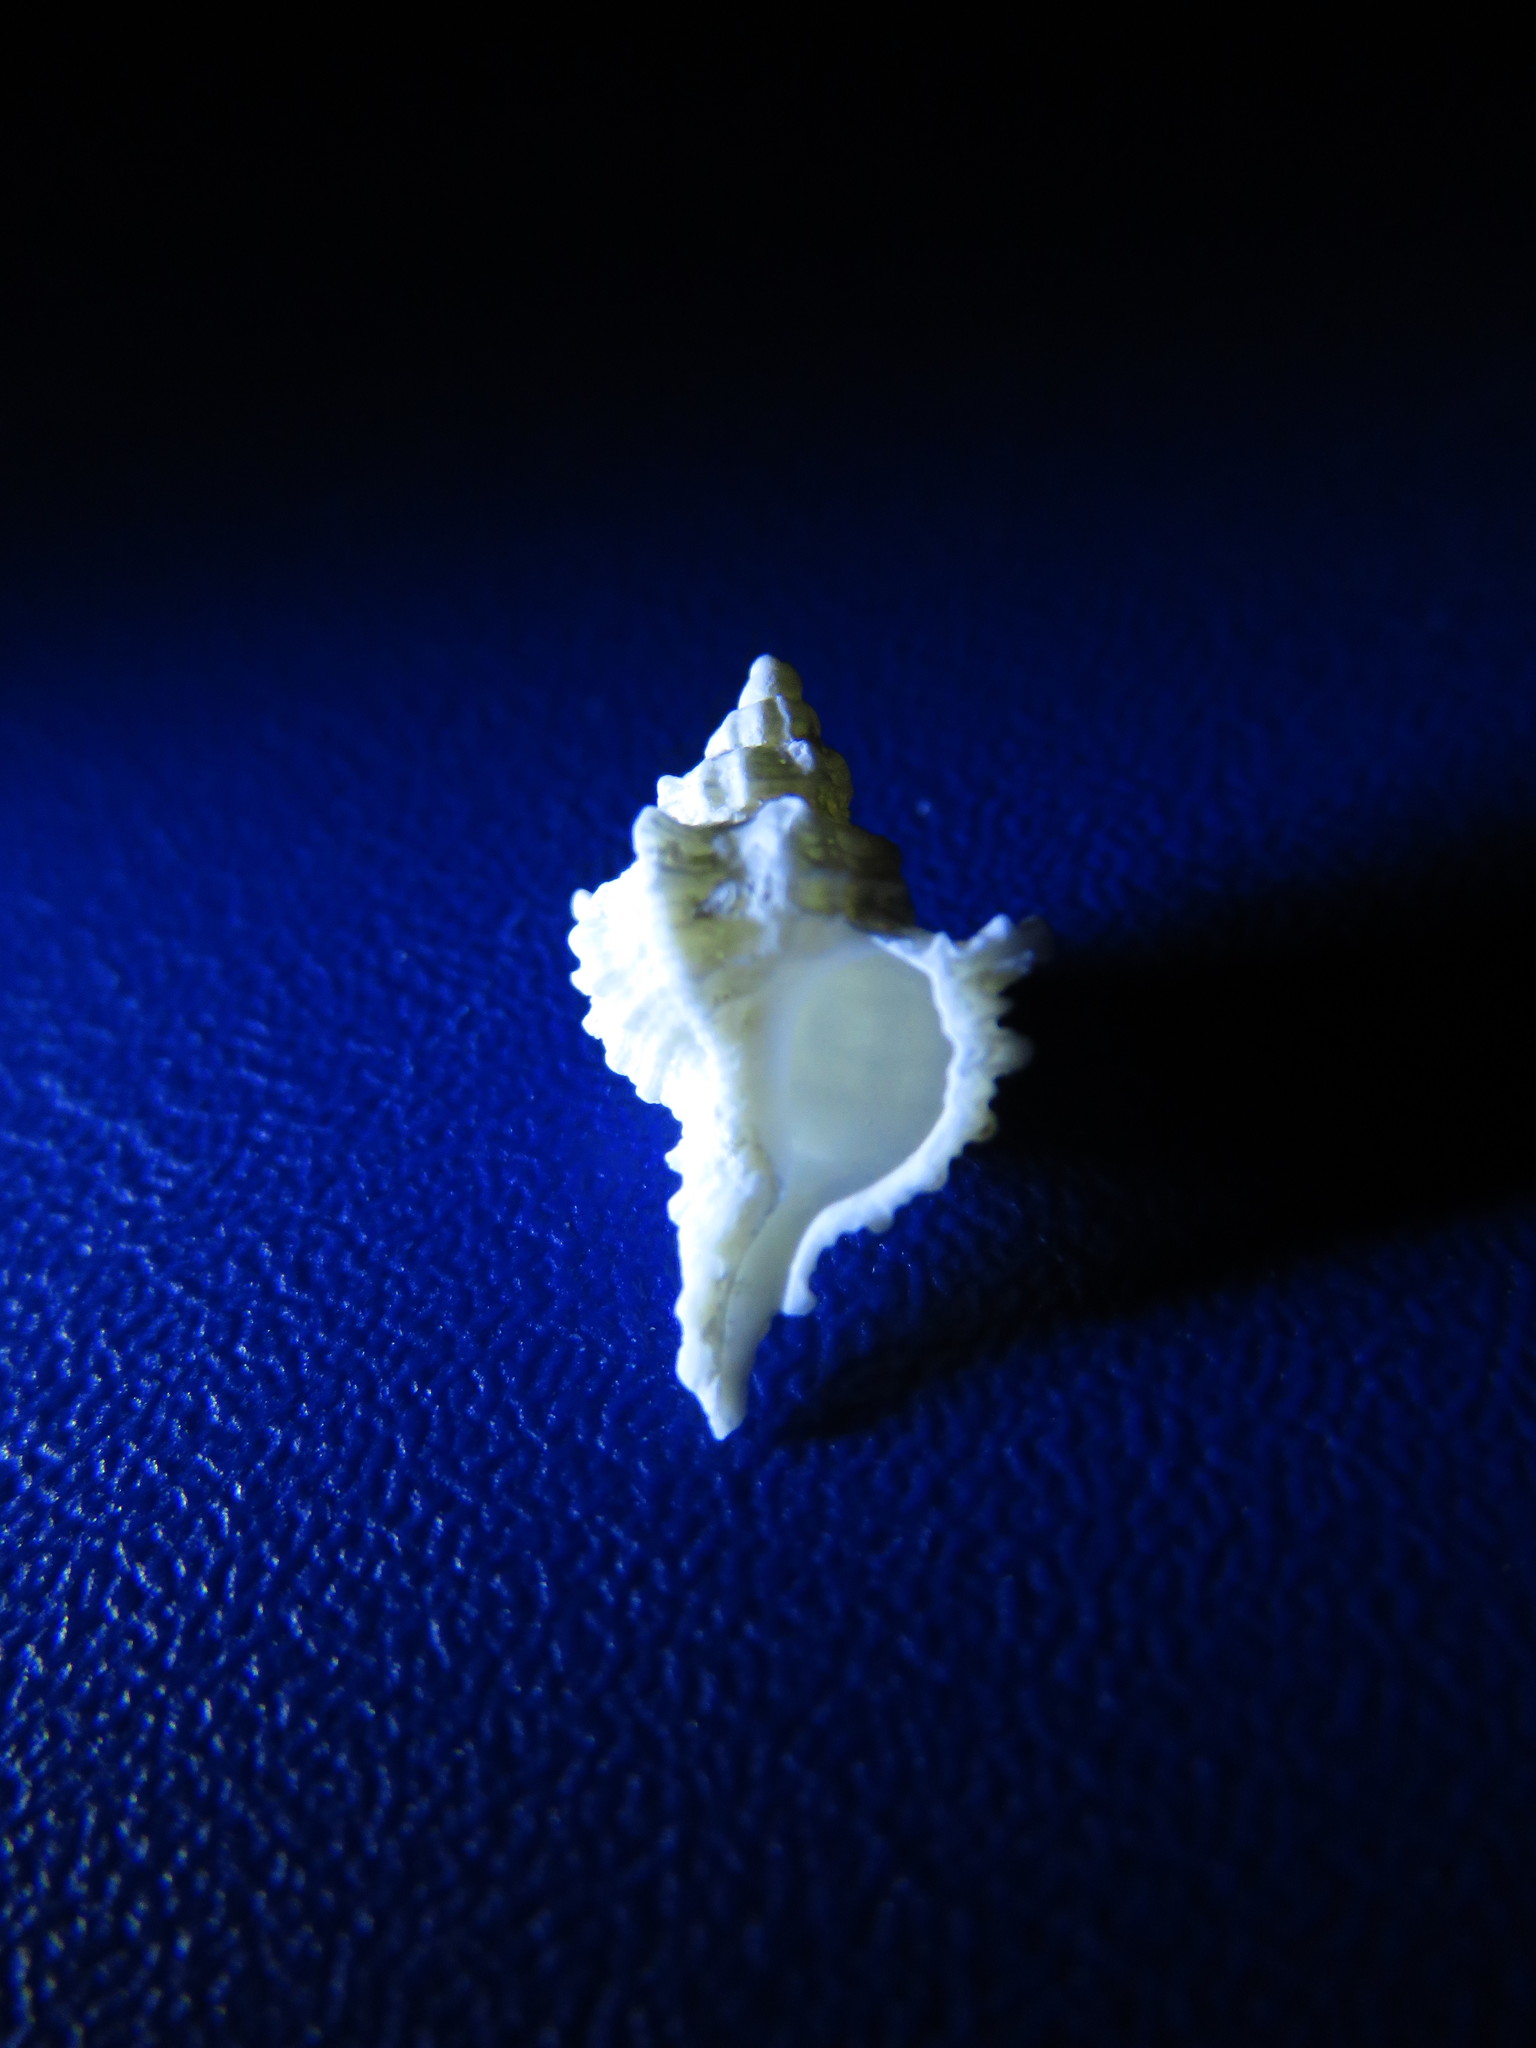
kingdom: Animalia
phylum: Mollusca
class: Gastropoda
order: Neogastropoda
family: Muricidae
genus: Chicoreus
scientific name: Chicoreus asianus
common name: Asian murex
